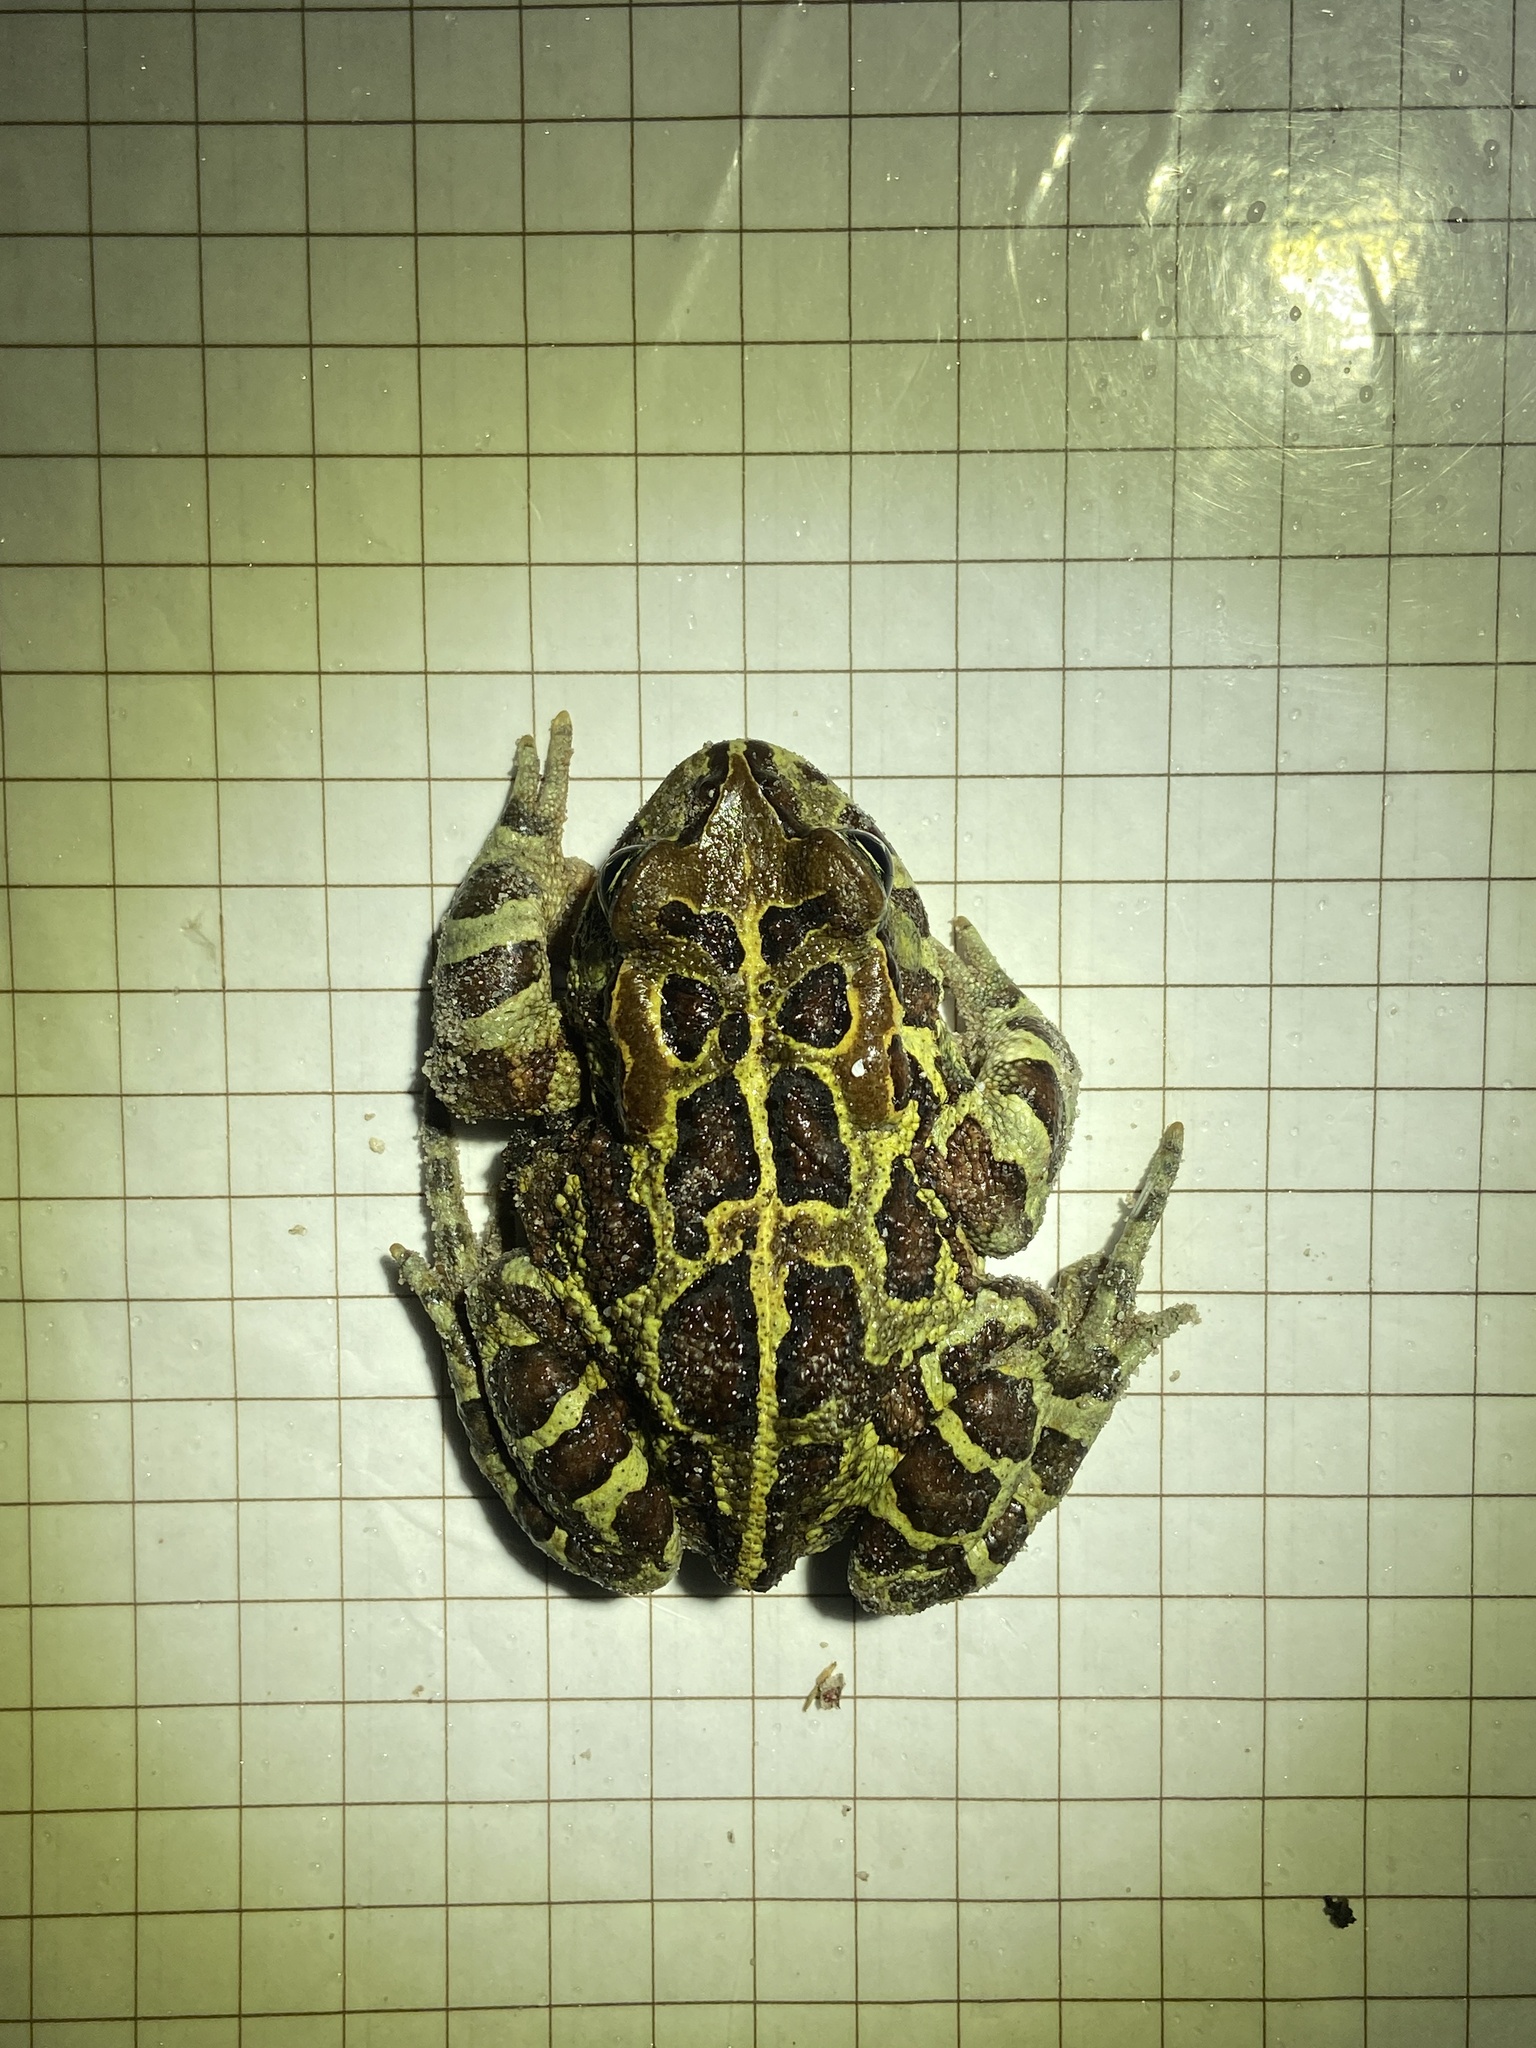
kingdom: Animalia
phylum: Chordata
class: Amphibia
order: Anura
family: Bufonidae
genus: Sclerophrys
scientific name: Sclerophrys pantherina
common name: Panther toad
